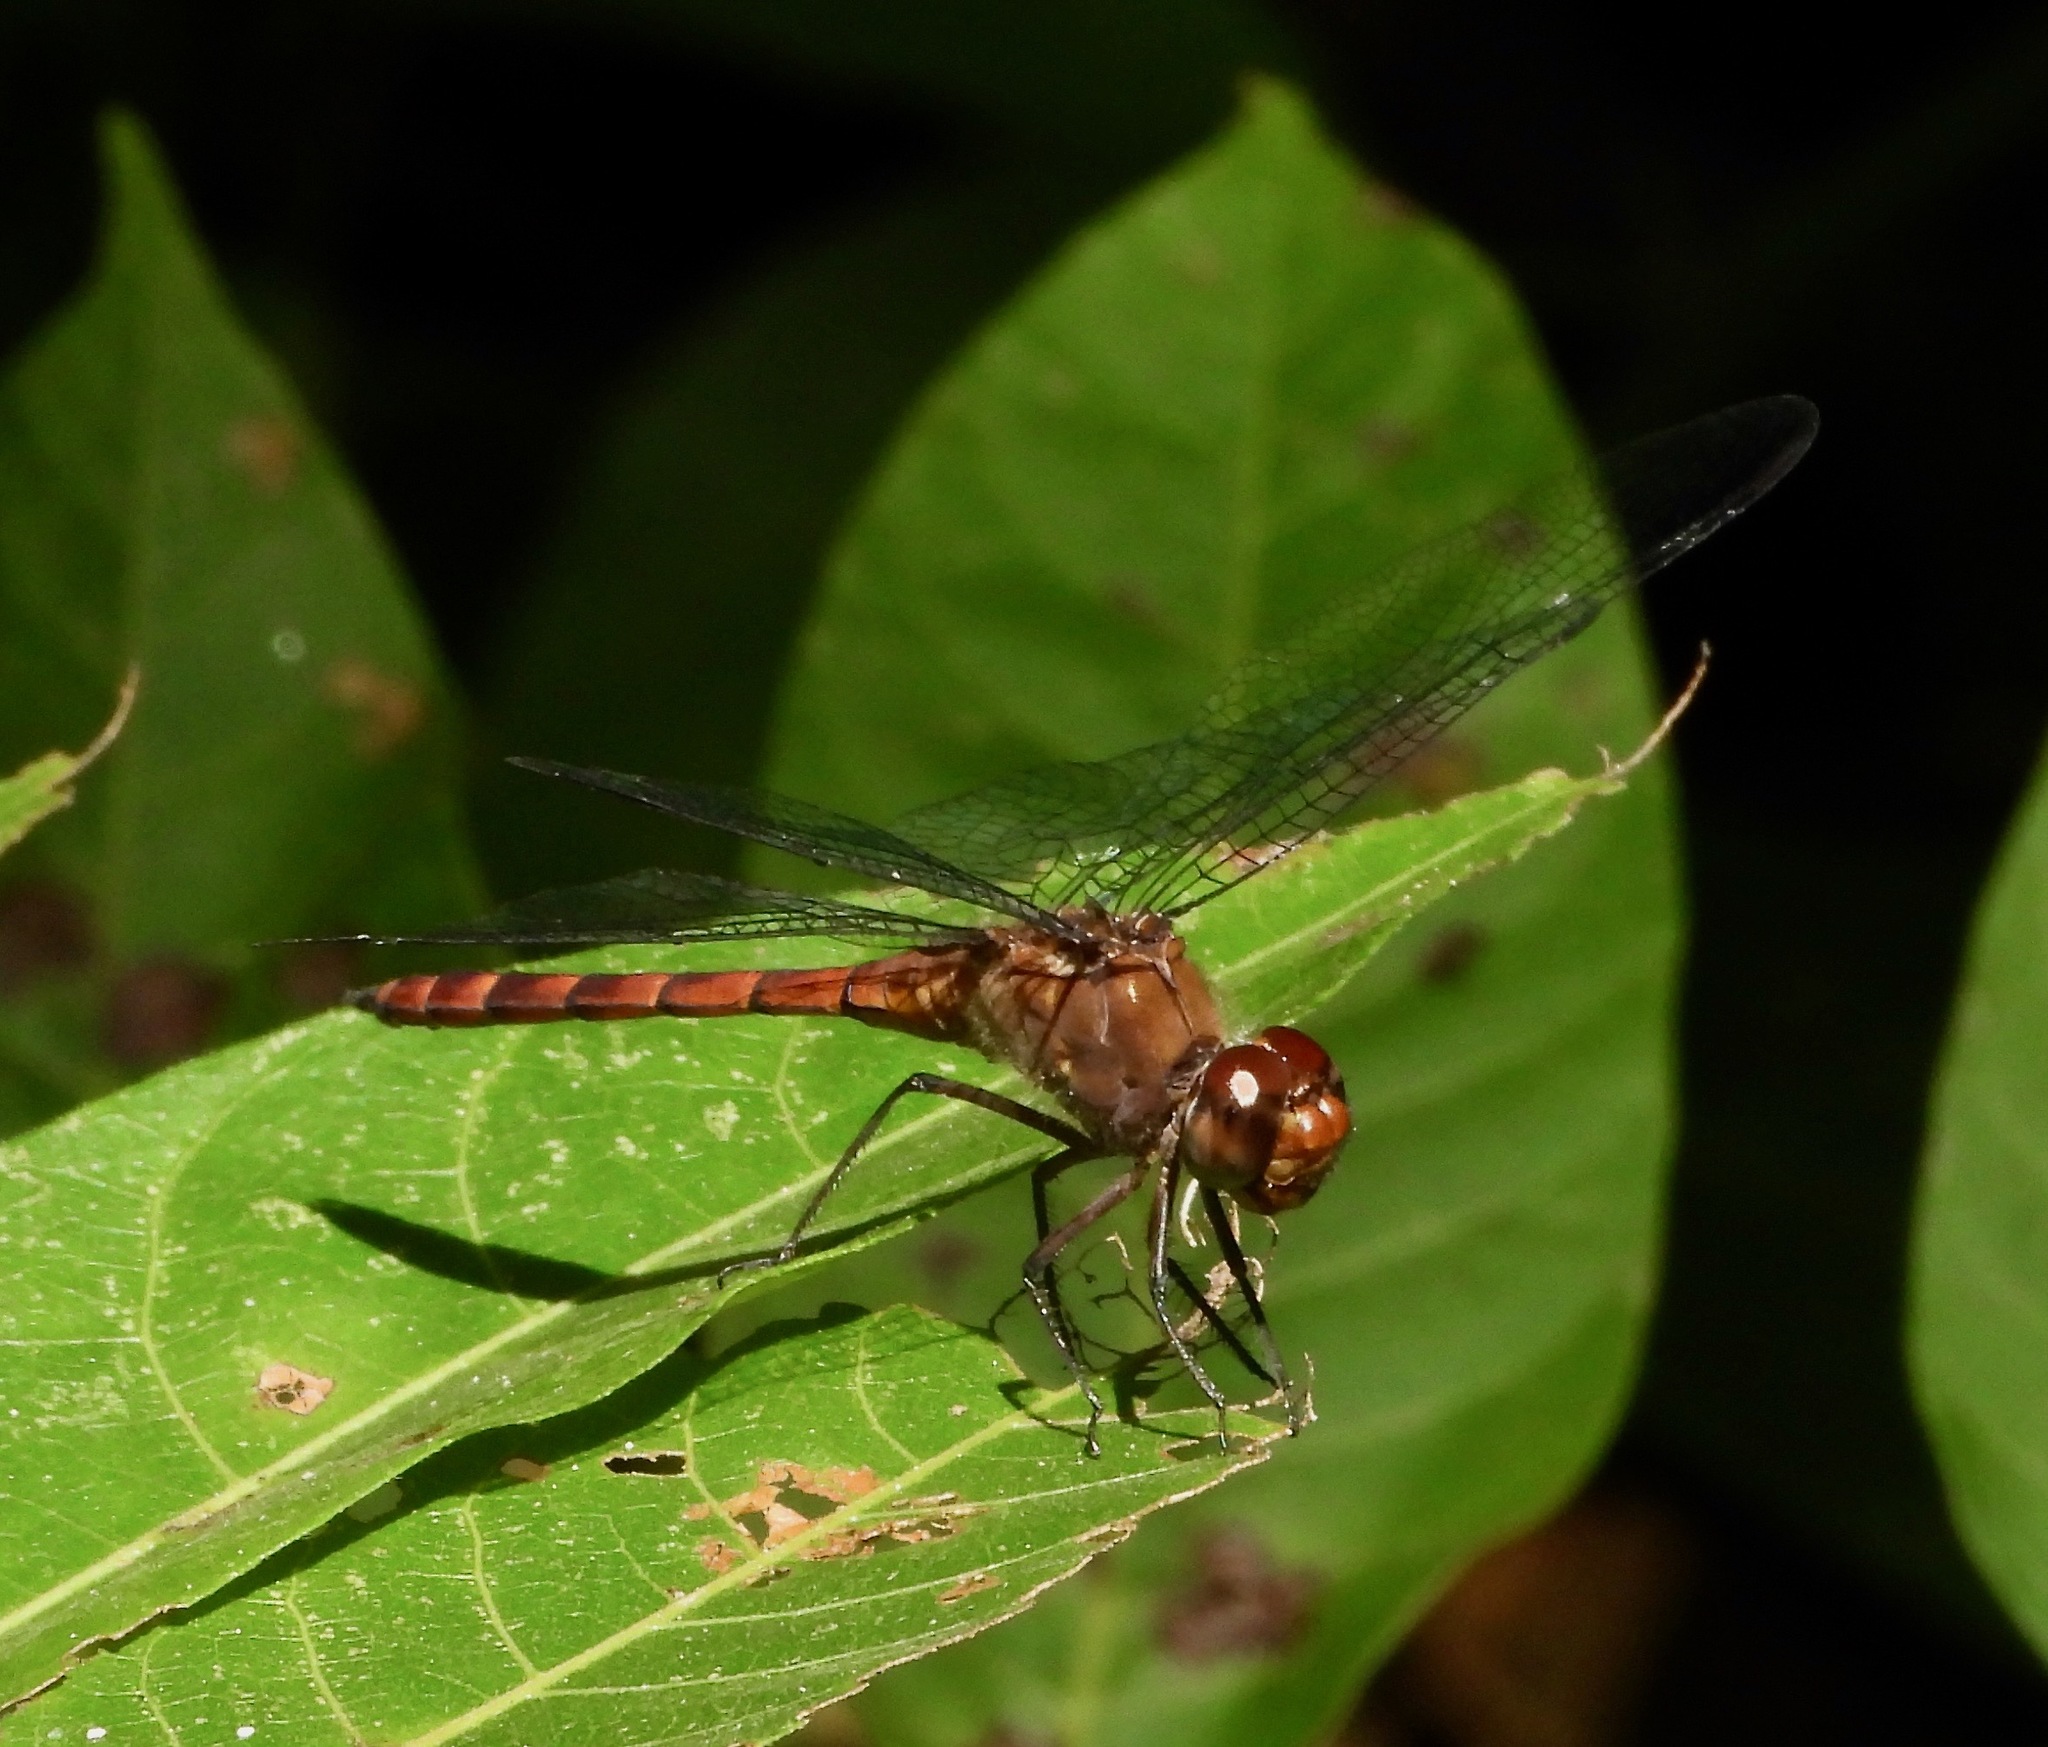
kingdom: Animalia
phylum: Arthropoda
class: Insecta
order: Odonata
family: Libellulidae
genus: Elasmothemis
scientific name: Elasmothemis cannacrioides
